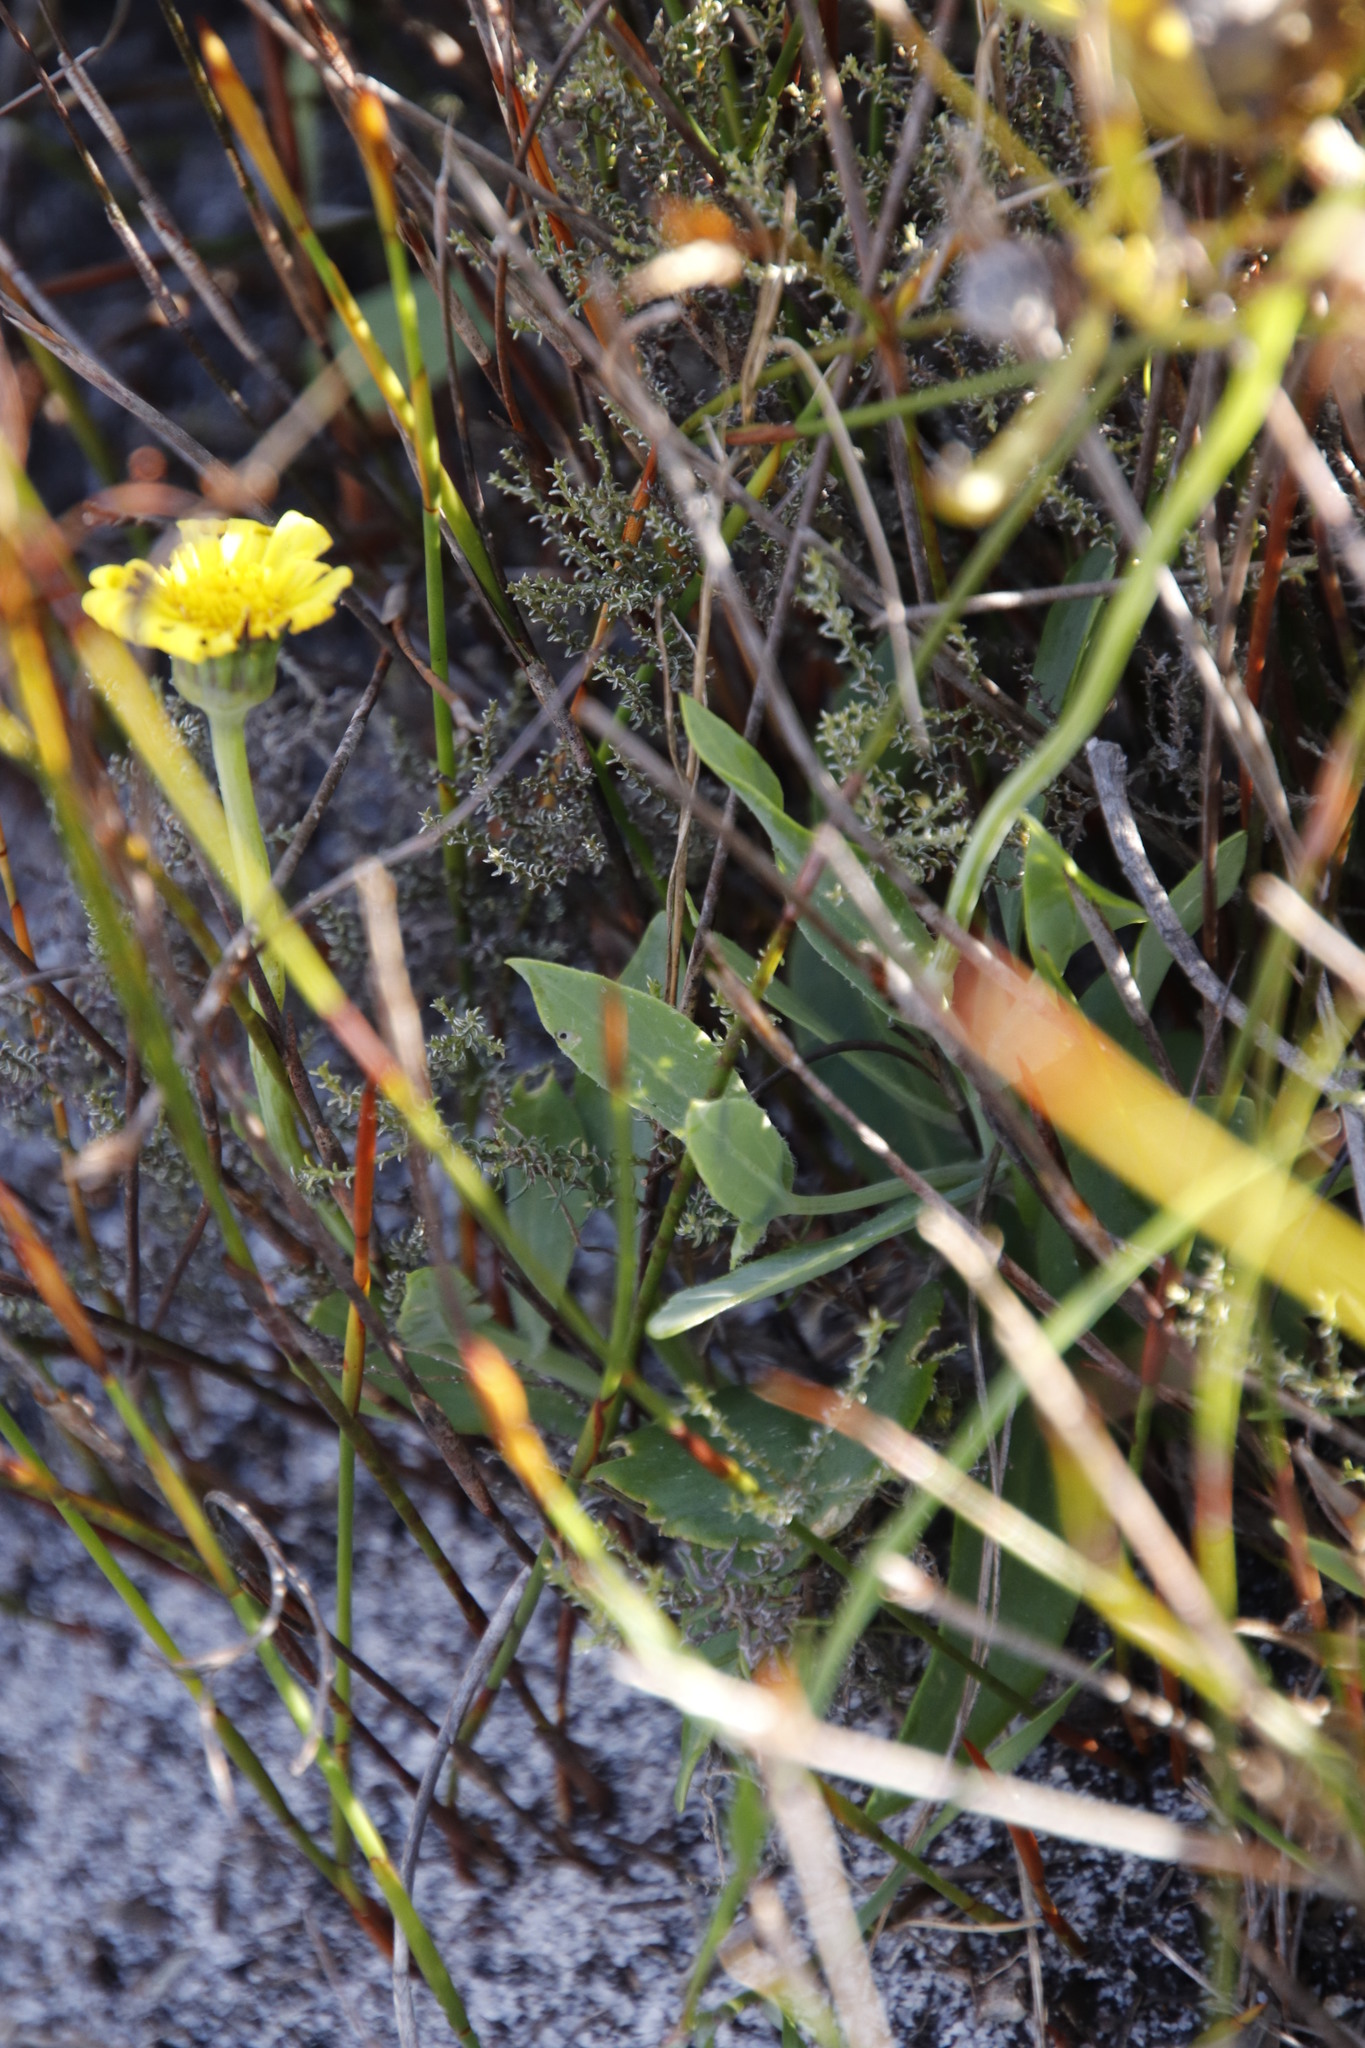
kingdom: Plantae
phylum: Tracheophyta
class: Magnoliopsida
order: Asterales
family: Asteraceae
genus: Othonna
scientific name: Othonna bulbosa
